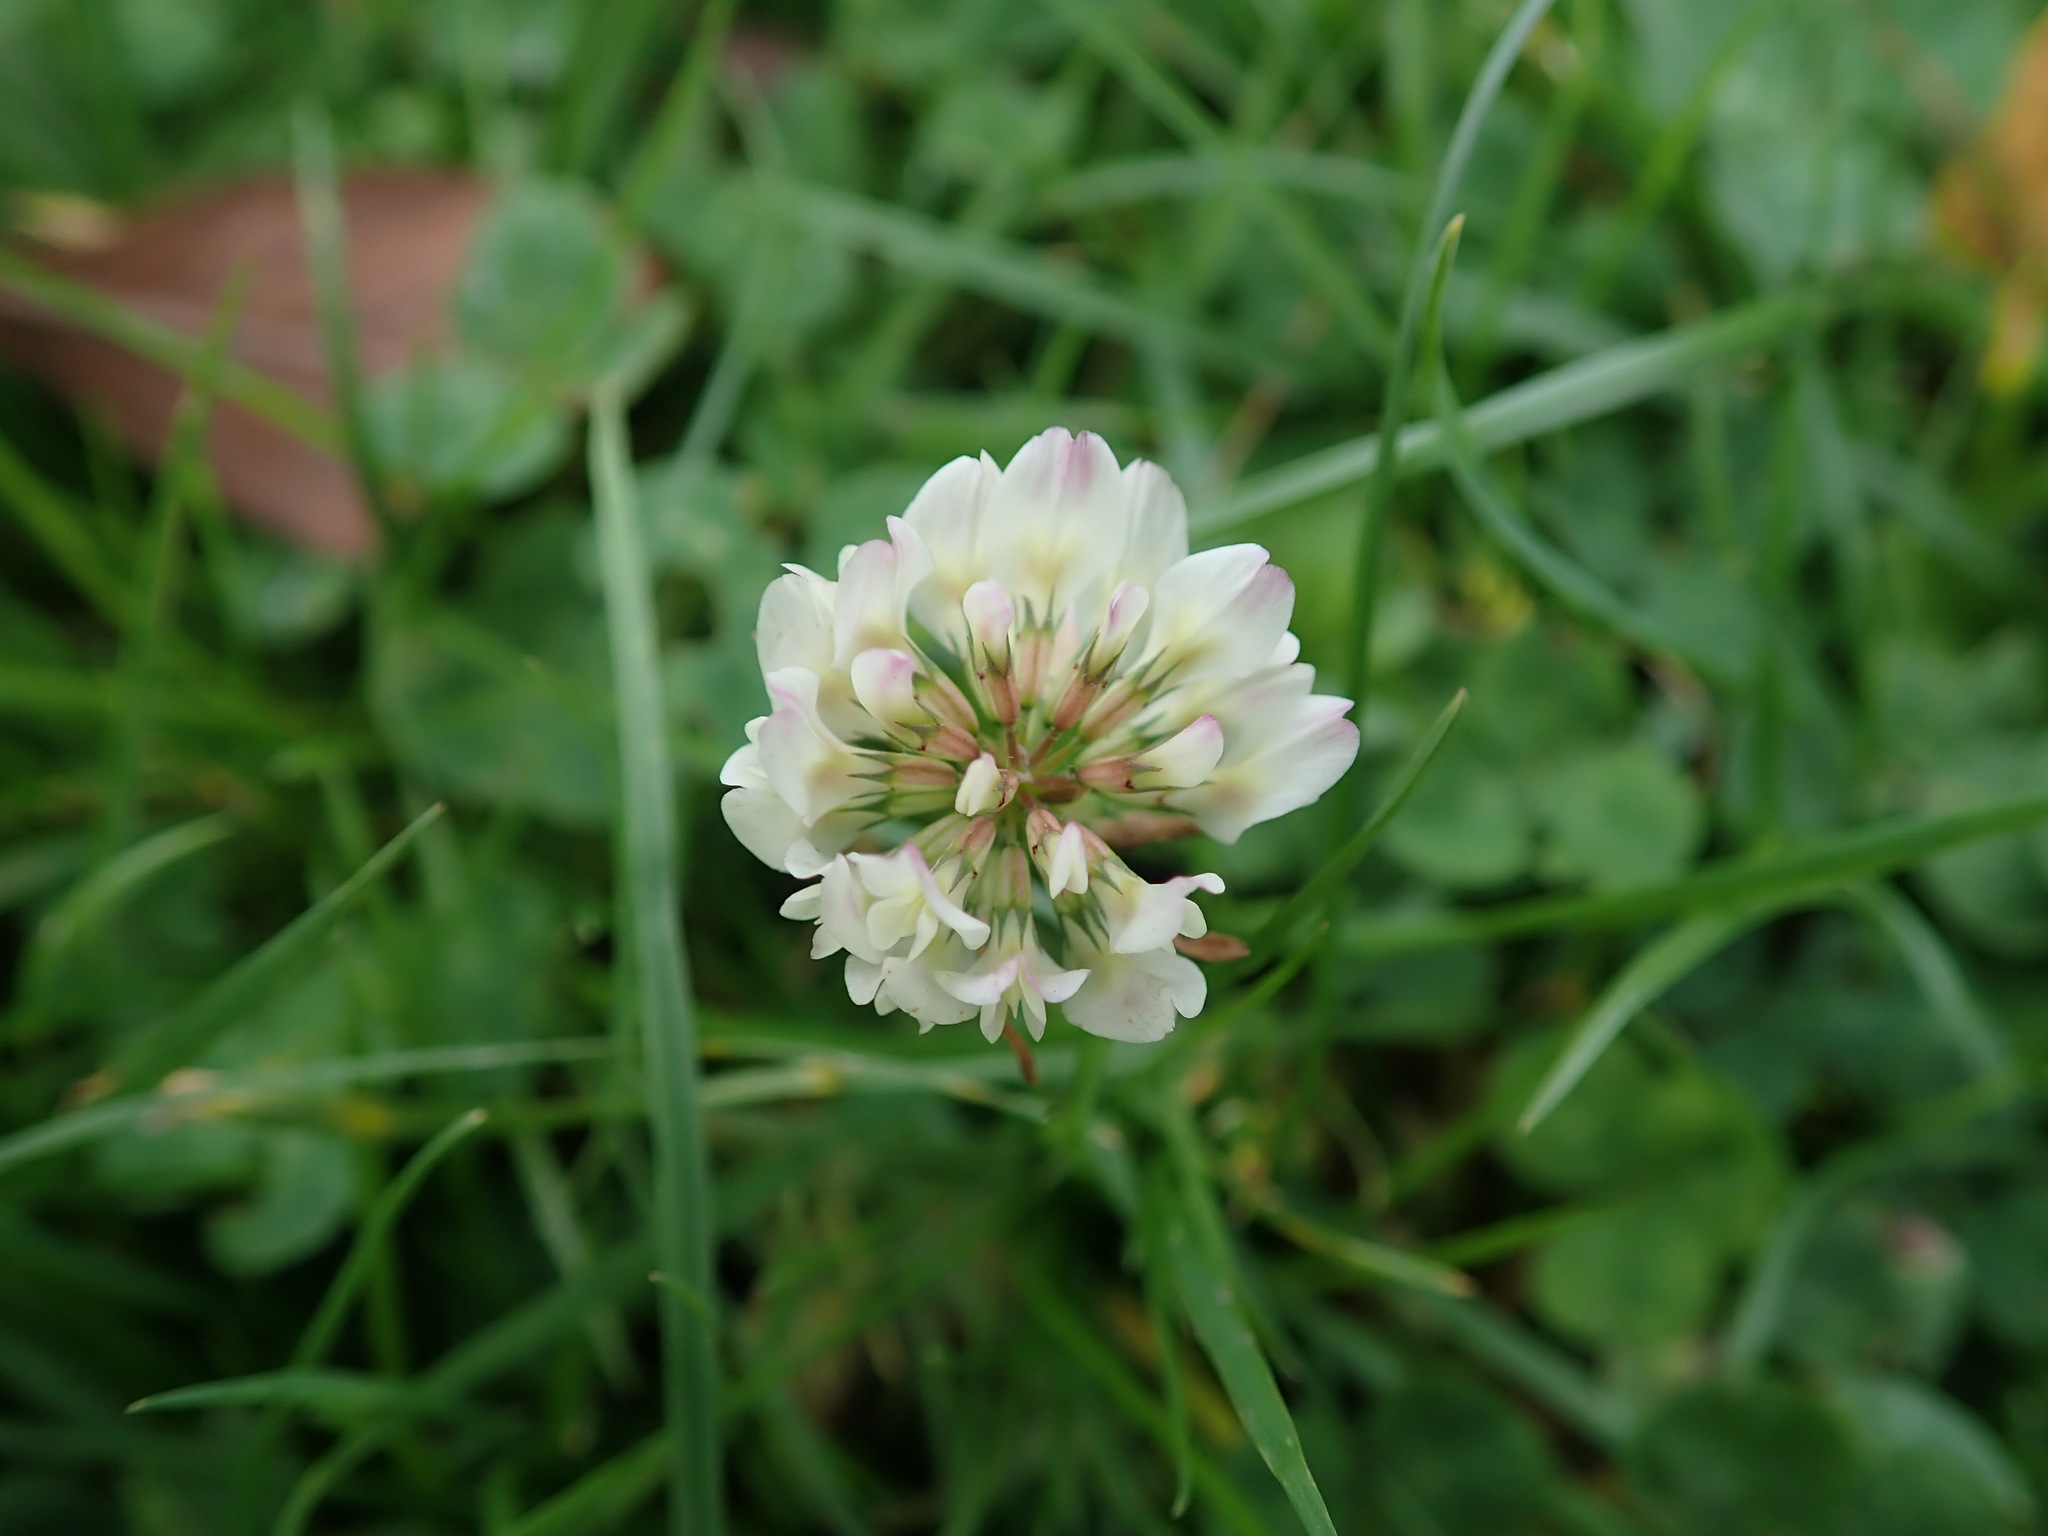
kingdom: Plantae
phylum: Tracheophyta
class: Magnoliopsida
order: Fabales
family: Fabaceae
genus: Trifolium
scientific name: Trifolium repens
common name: White clover
